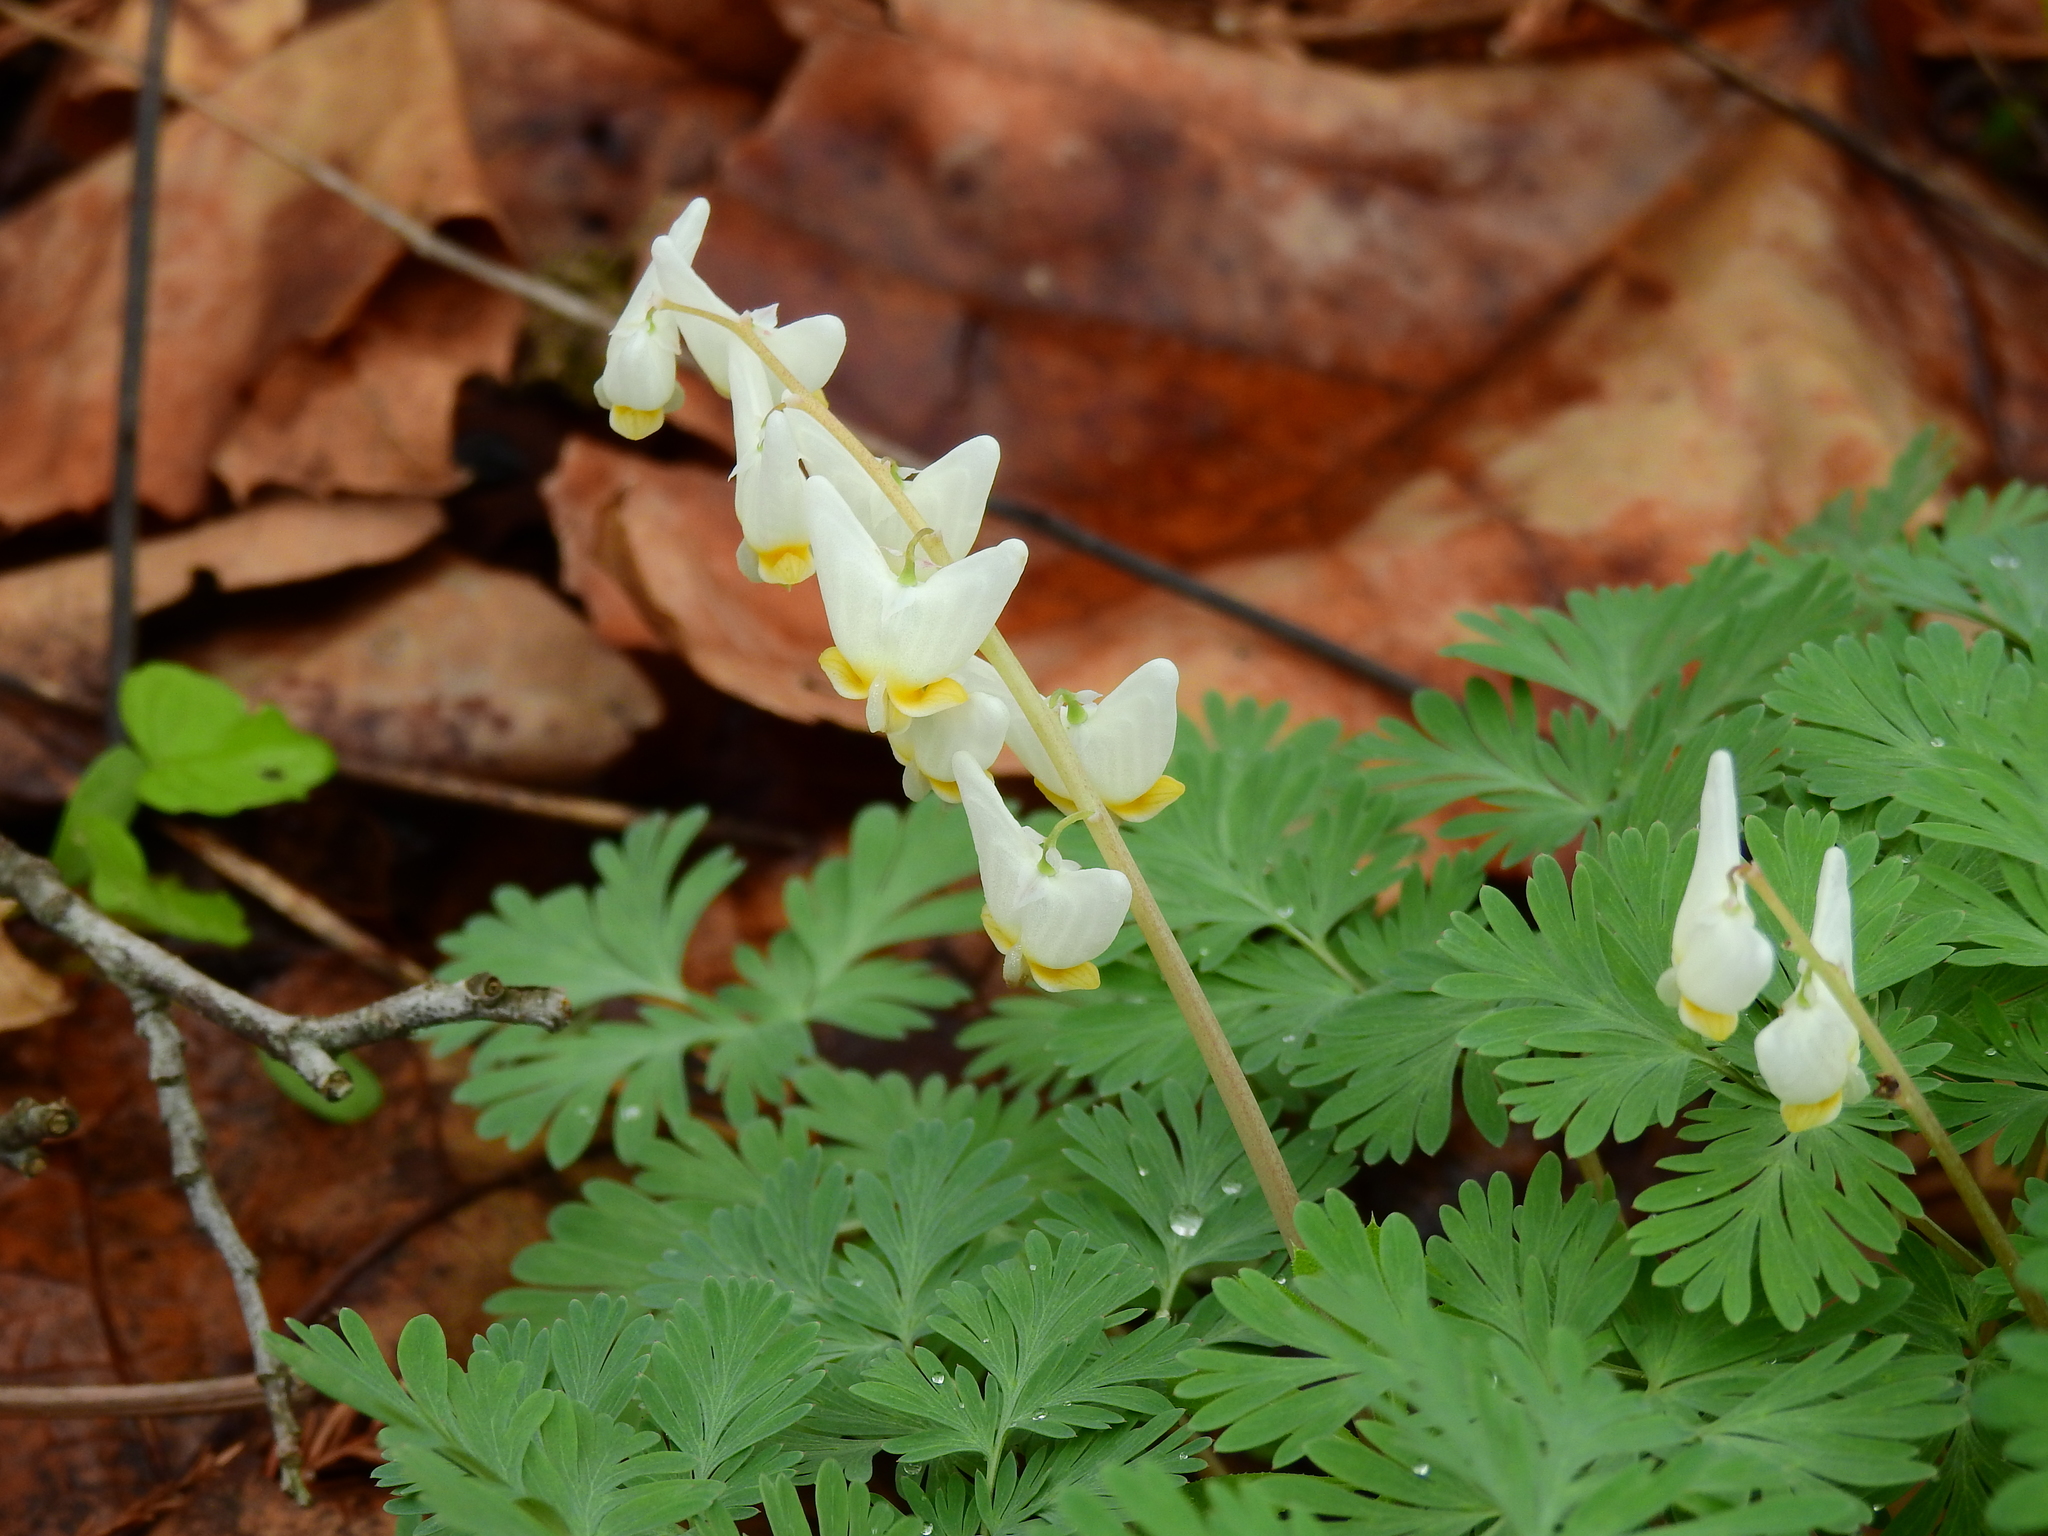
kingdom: Plantae
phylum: Tracheophyta
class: Magnoliopsida
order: Ranunculales
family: Papaveraceae
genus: Dicentra
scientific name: Dicentra cucullaria
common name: Dutchman's breeches
